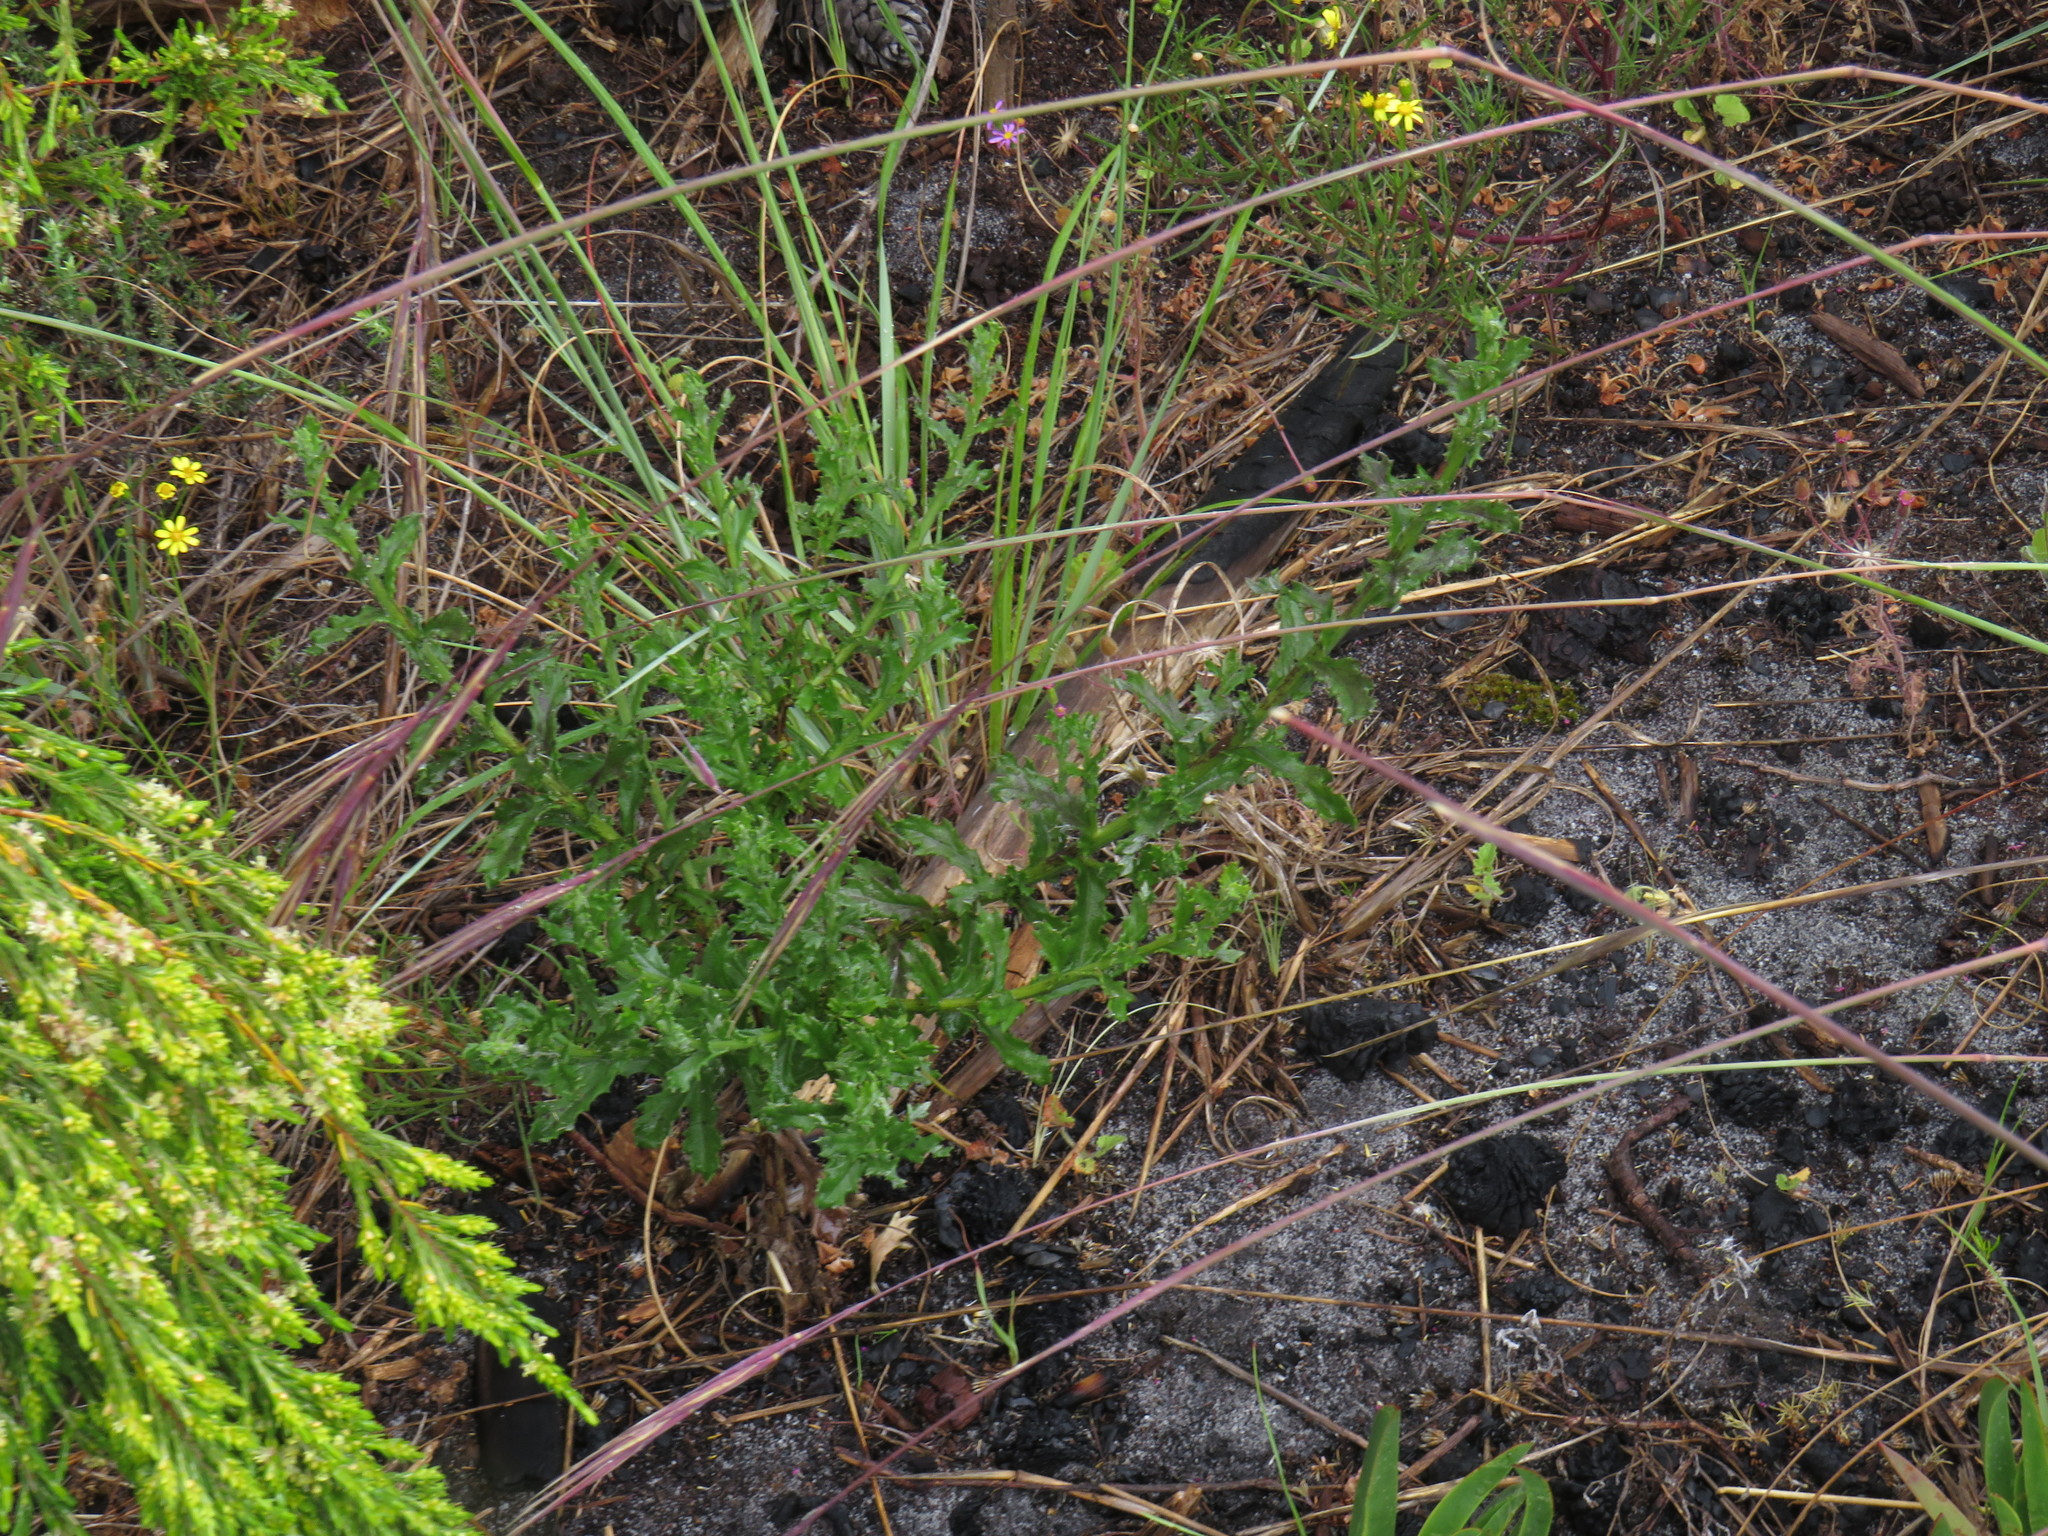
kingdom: Plantae
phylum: Tracheophyta
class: Magnoliopsida
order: Asterales
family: Asteraceae
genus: Senecio
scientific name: Senecio pubigerus
